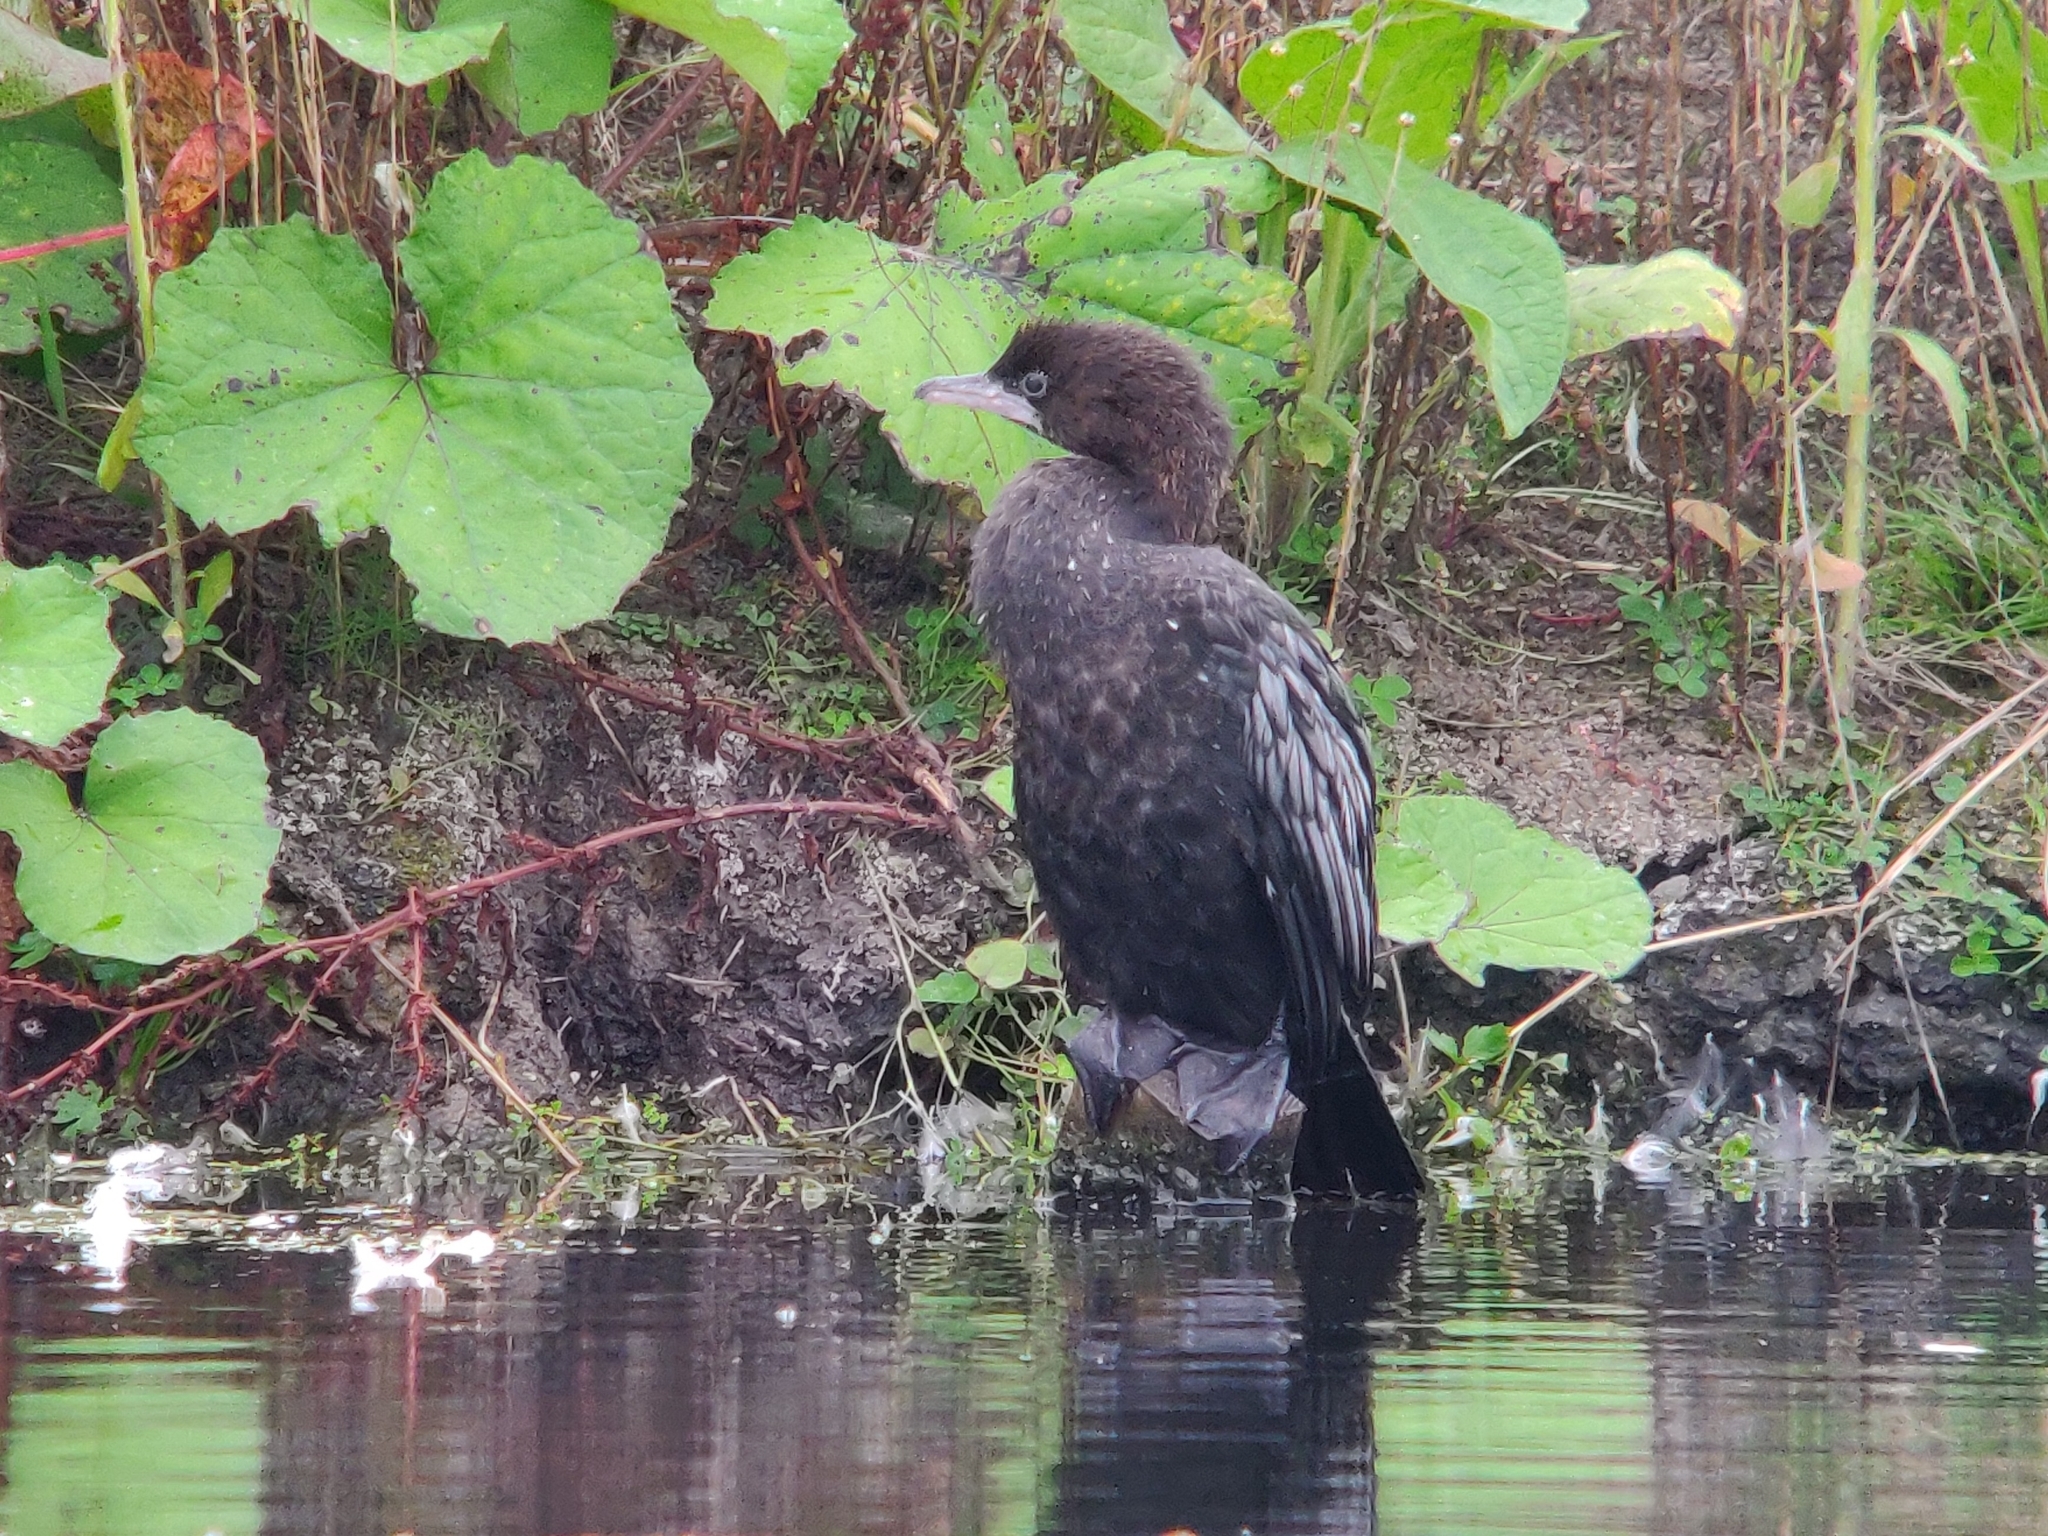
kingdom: Animalia
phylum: Chordata
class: Aves
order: Suliformes
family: Phalacrocoracidae
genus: Microcarbo
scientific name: Microcarbo pygmaeus
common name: Pygmy cormorant
